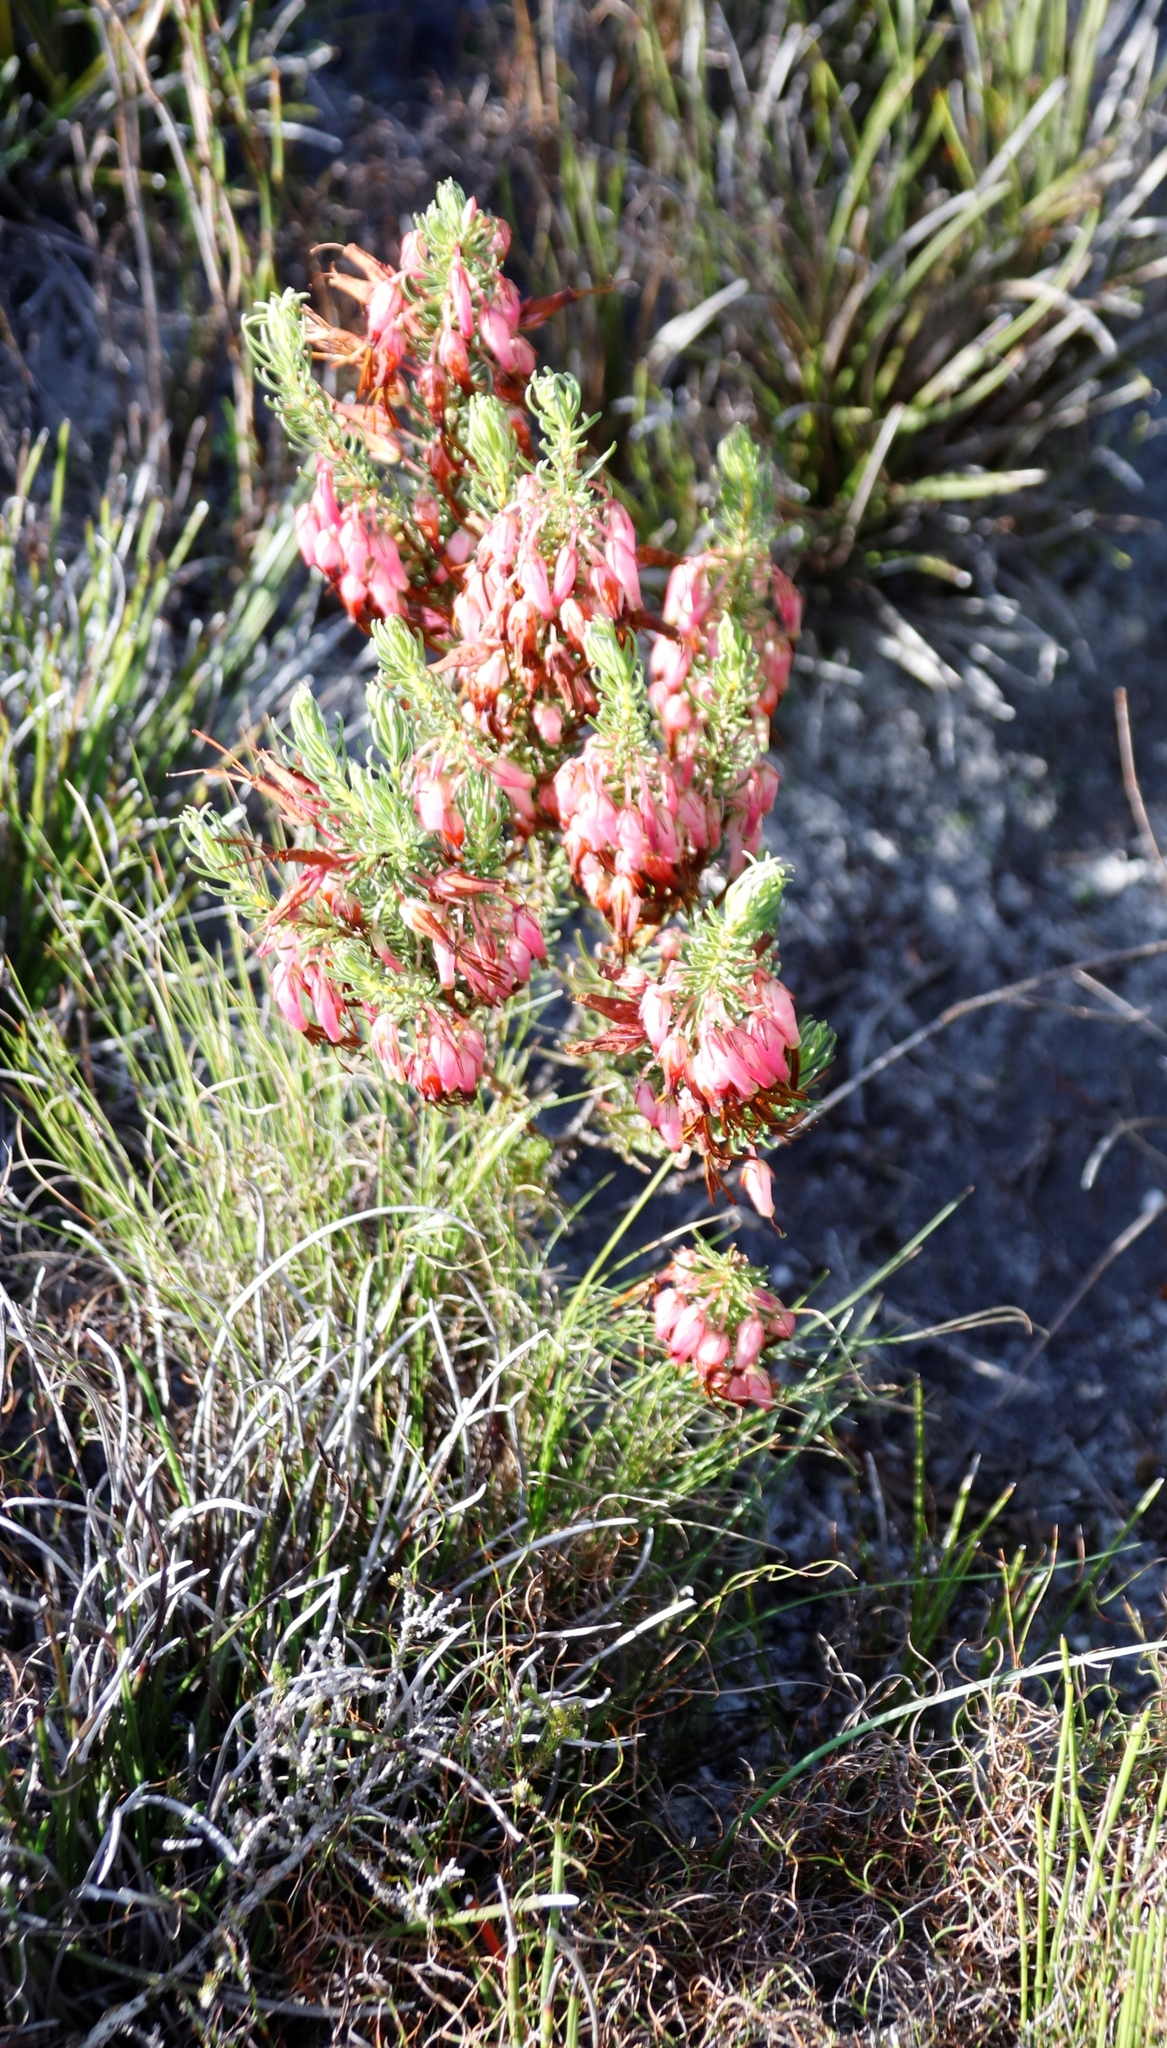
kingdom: Plantae
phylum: Tracheophyta
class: Magnoliopsida
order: Ericales
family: Ericaceae
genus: Erica
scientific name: Erica plukenetii
